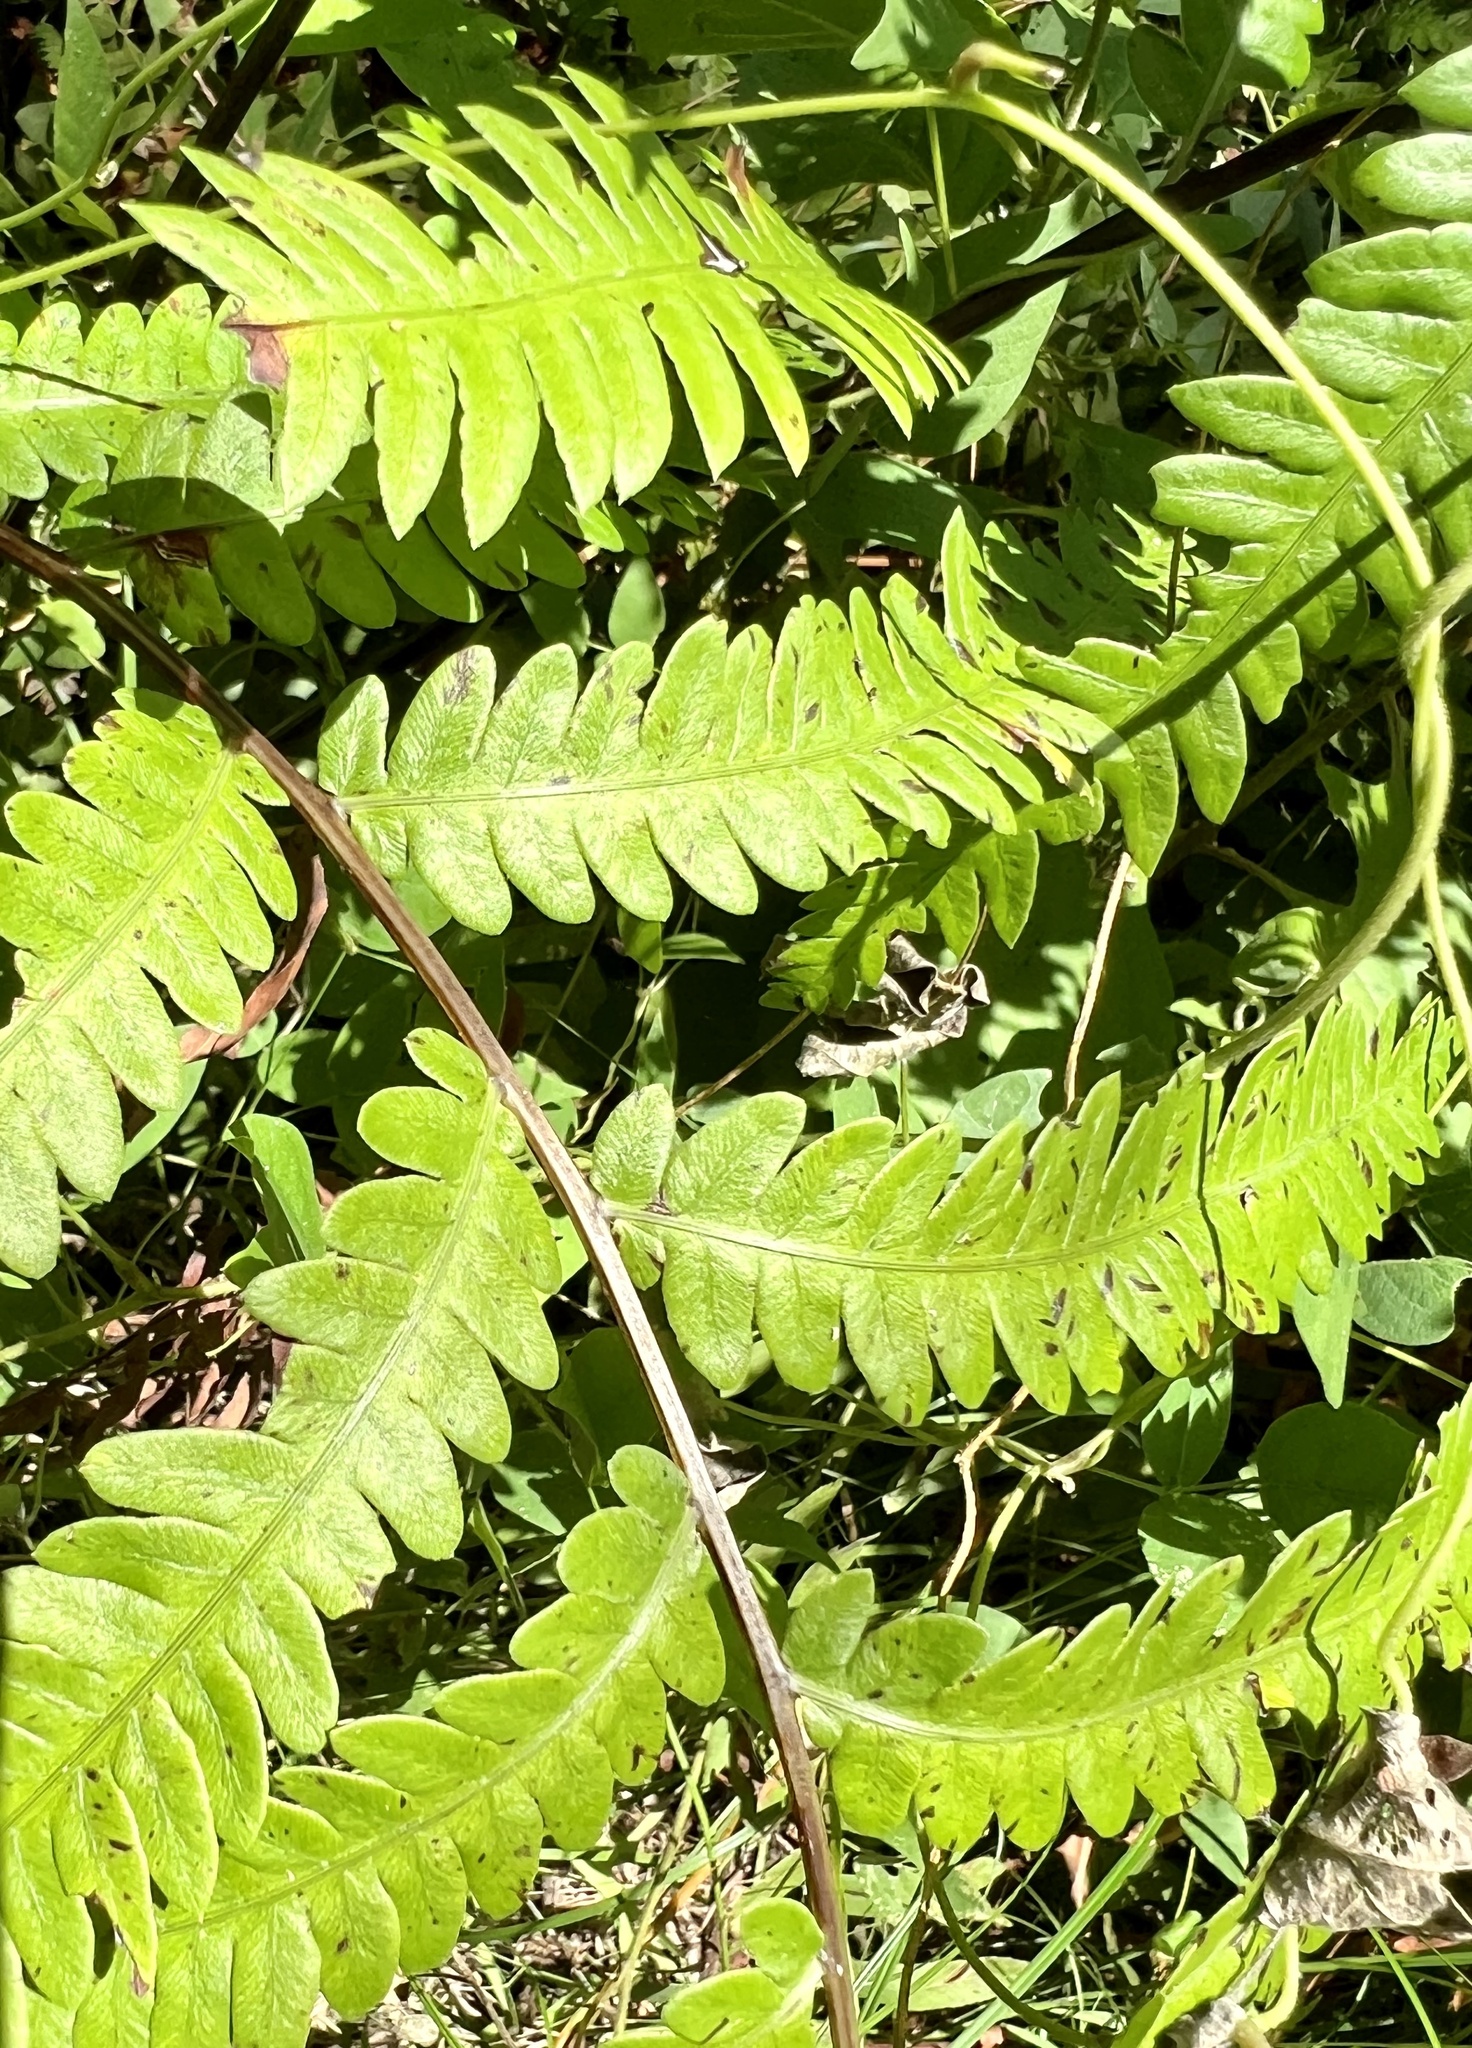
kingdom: Plantae
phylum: Tracheophyta
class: Polypodiopsida
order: Polypodiales
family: Blechnaceae
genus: Anchistea
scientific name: Anchistea virginica
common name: Virginia chain fern
